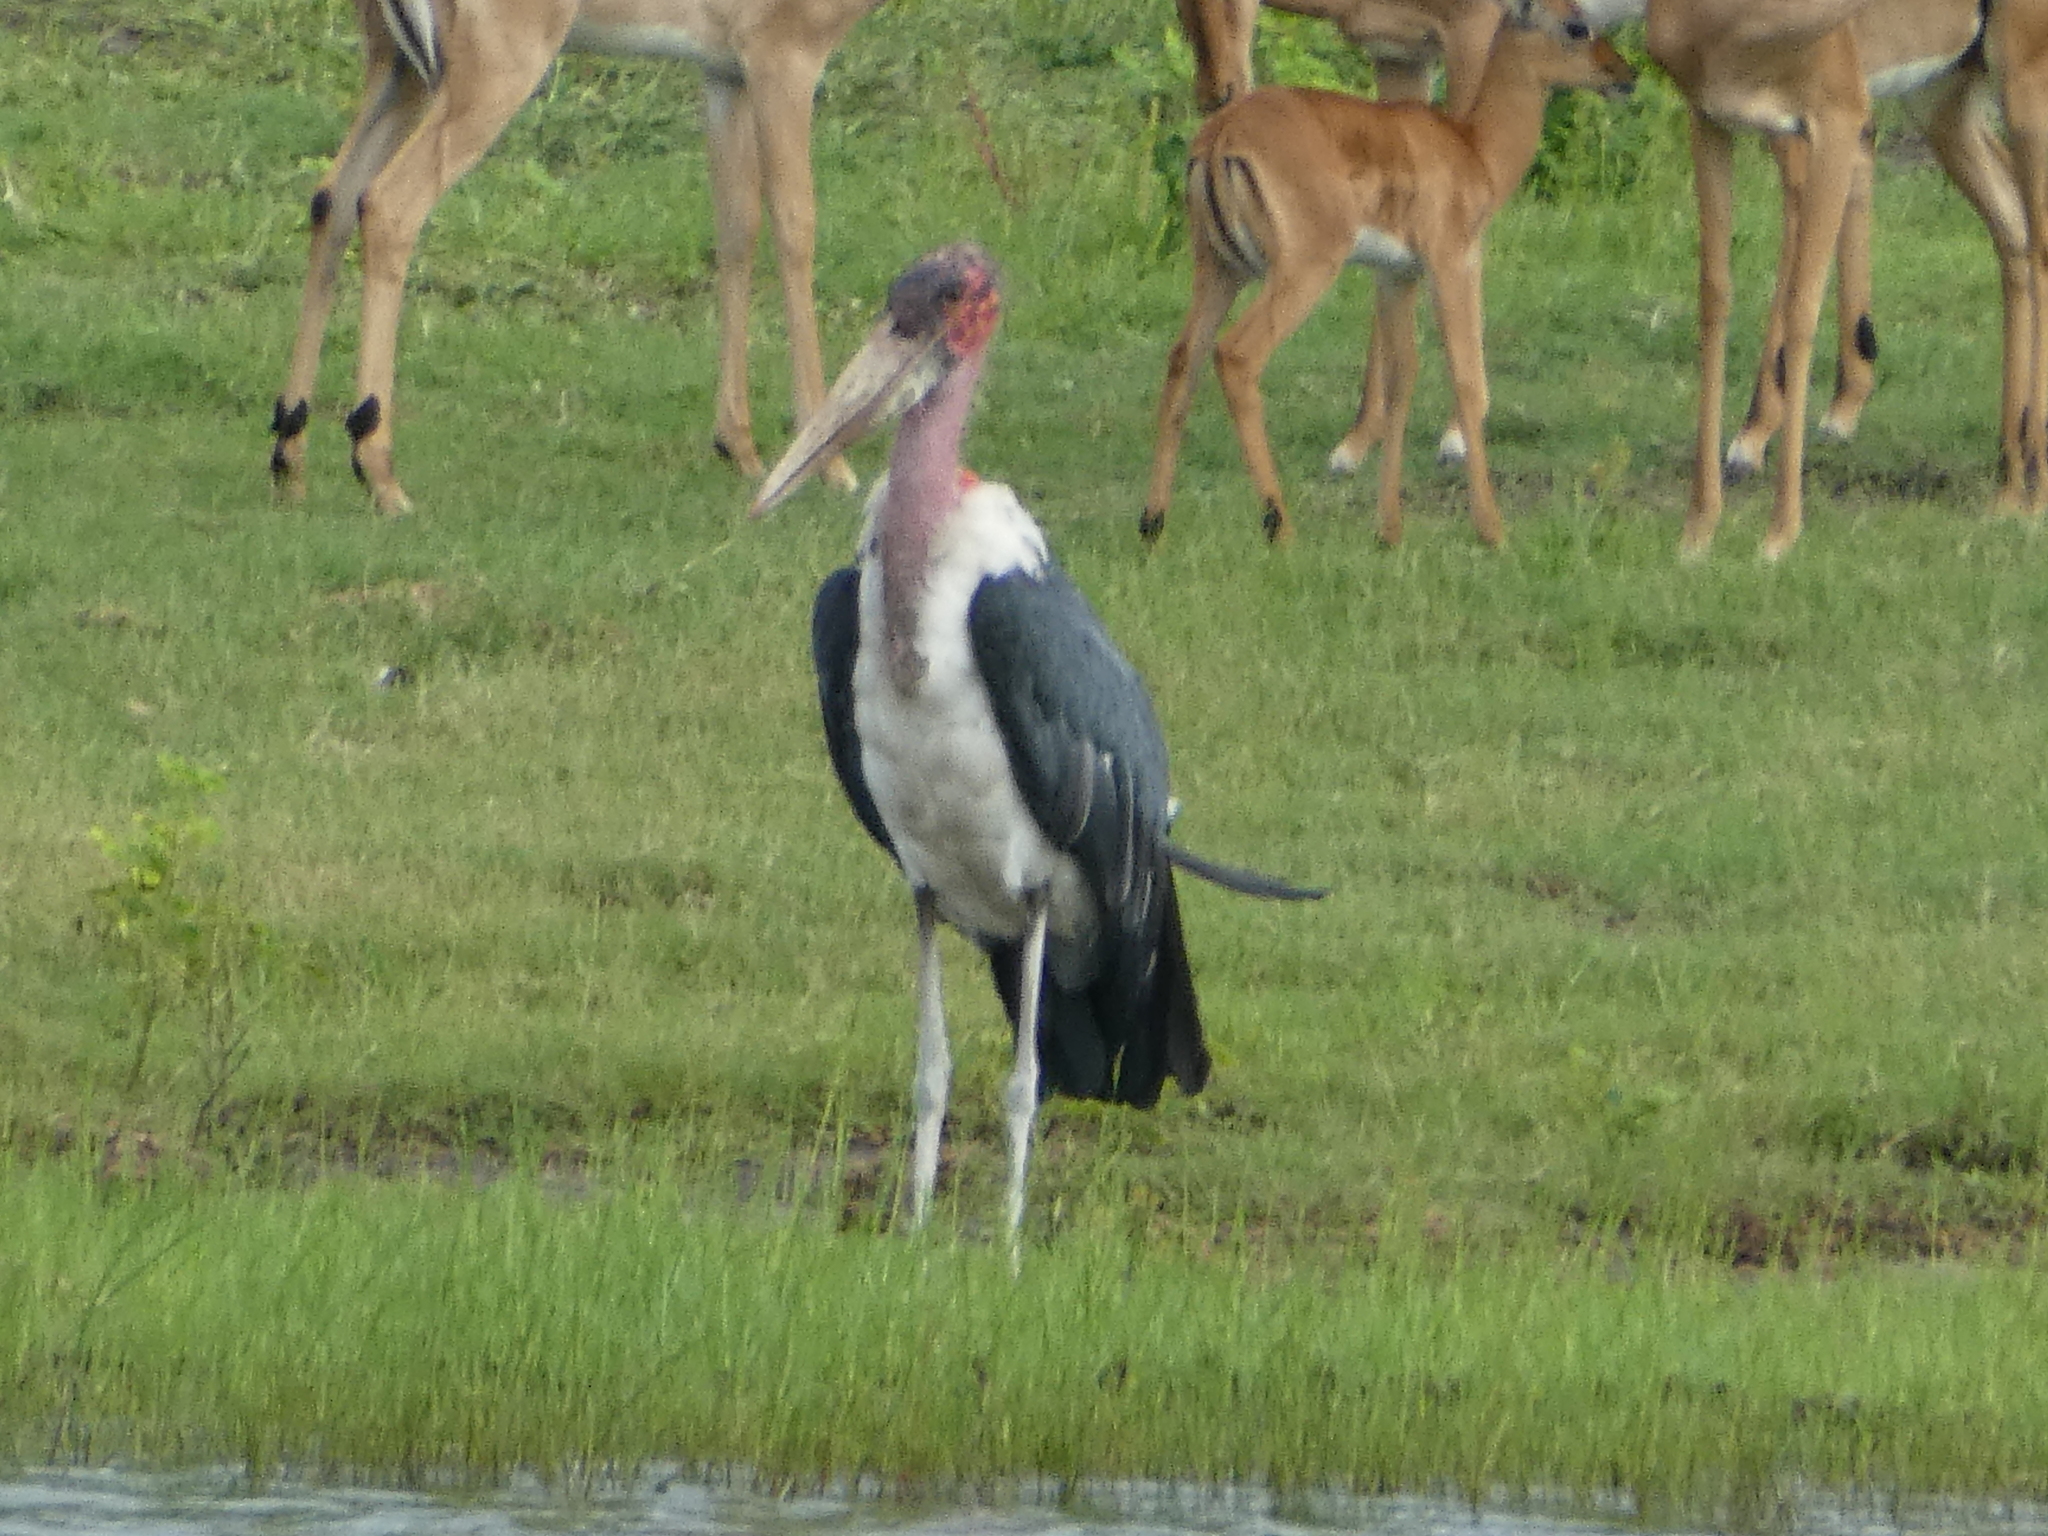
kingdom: Animalia
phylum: Chordata
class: Aves
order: Ciconiiformes
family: Ciconiidae
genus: Leptoptilos
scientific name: Leptoptilos crumenifer
